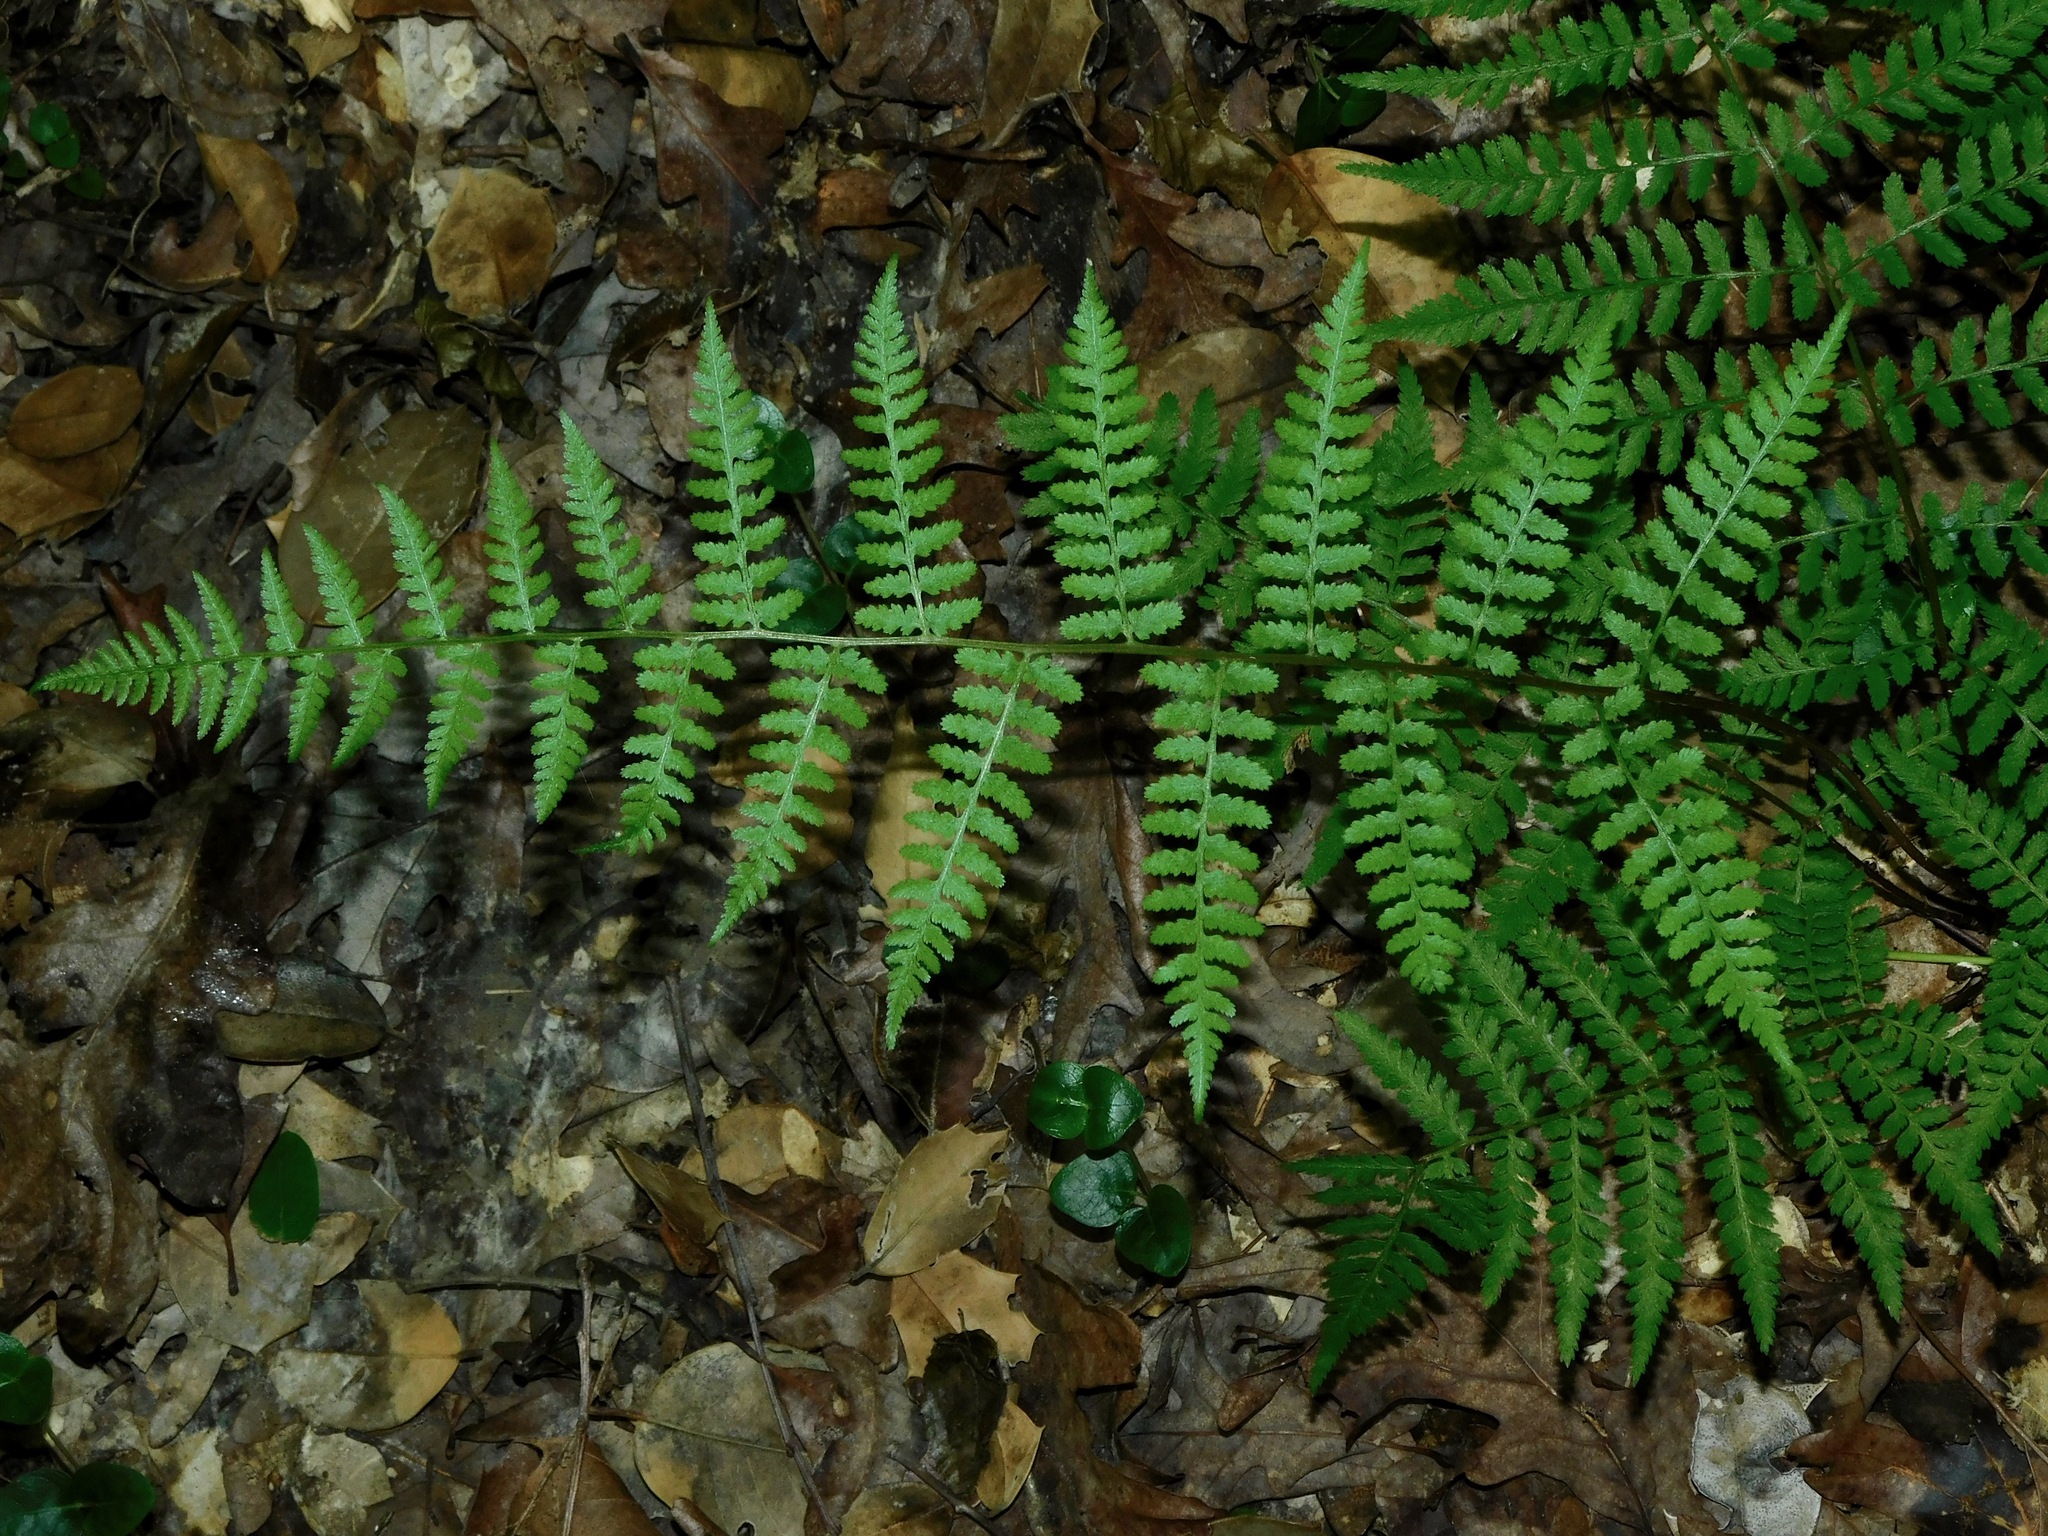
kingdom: Plantae
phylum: Tracheophyta
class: Polypodiopsida
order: Polypodiales
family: Athyriaceae
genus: Athyrium
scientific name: Athyrium asplenioides
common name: Southern lady fern
